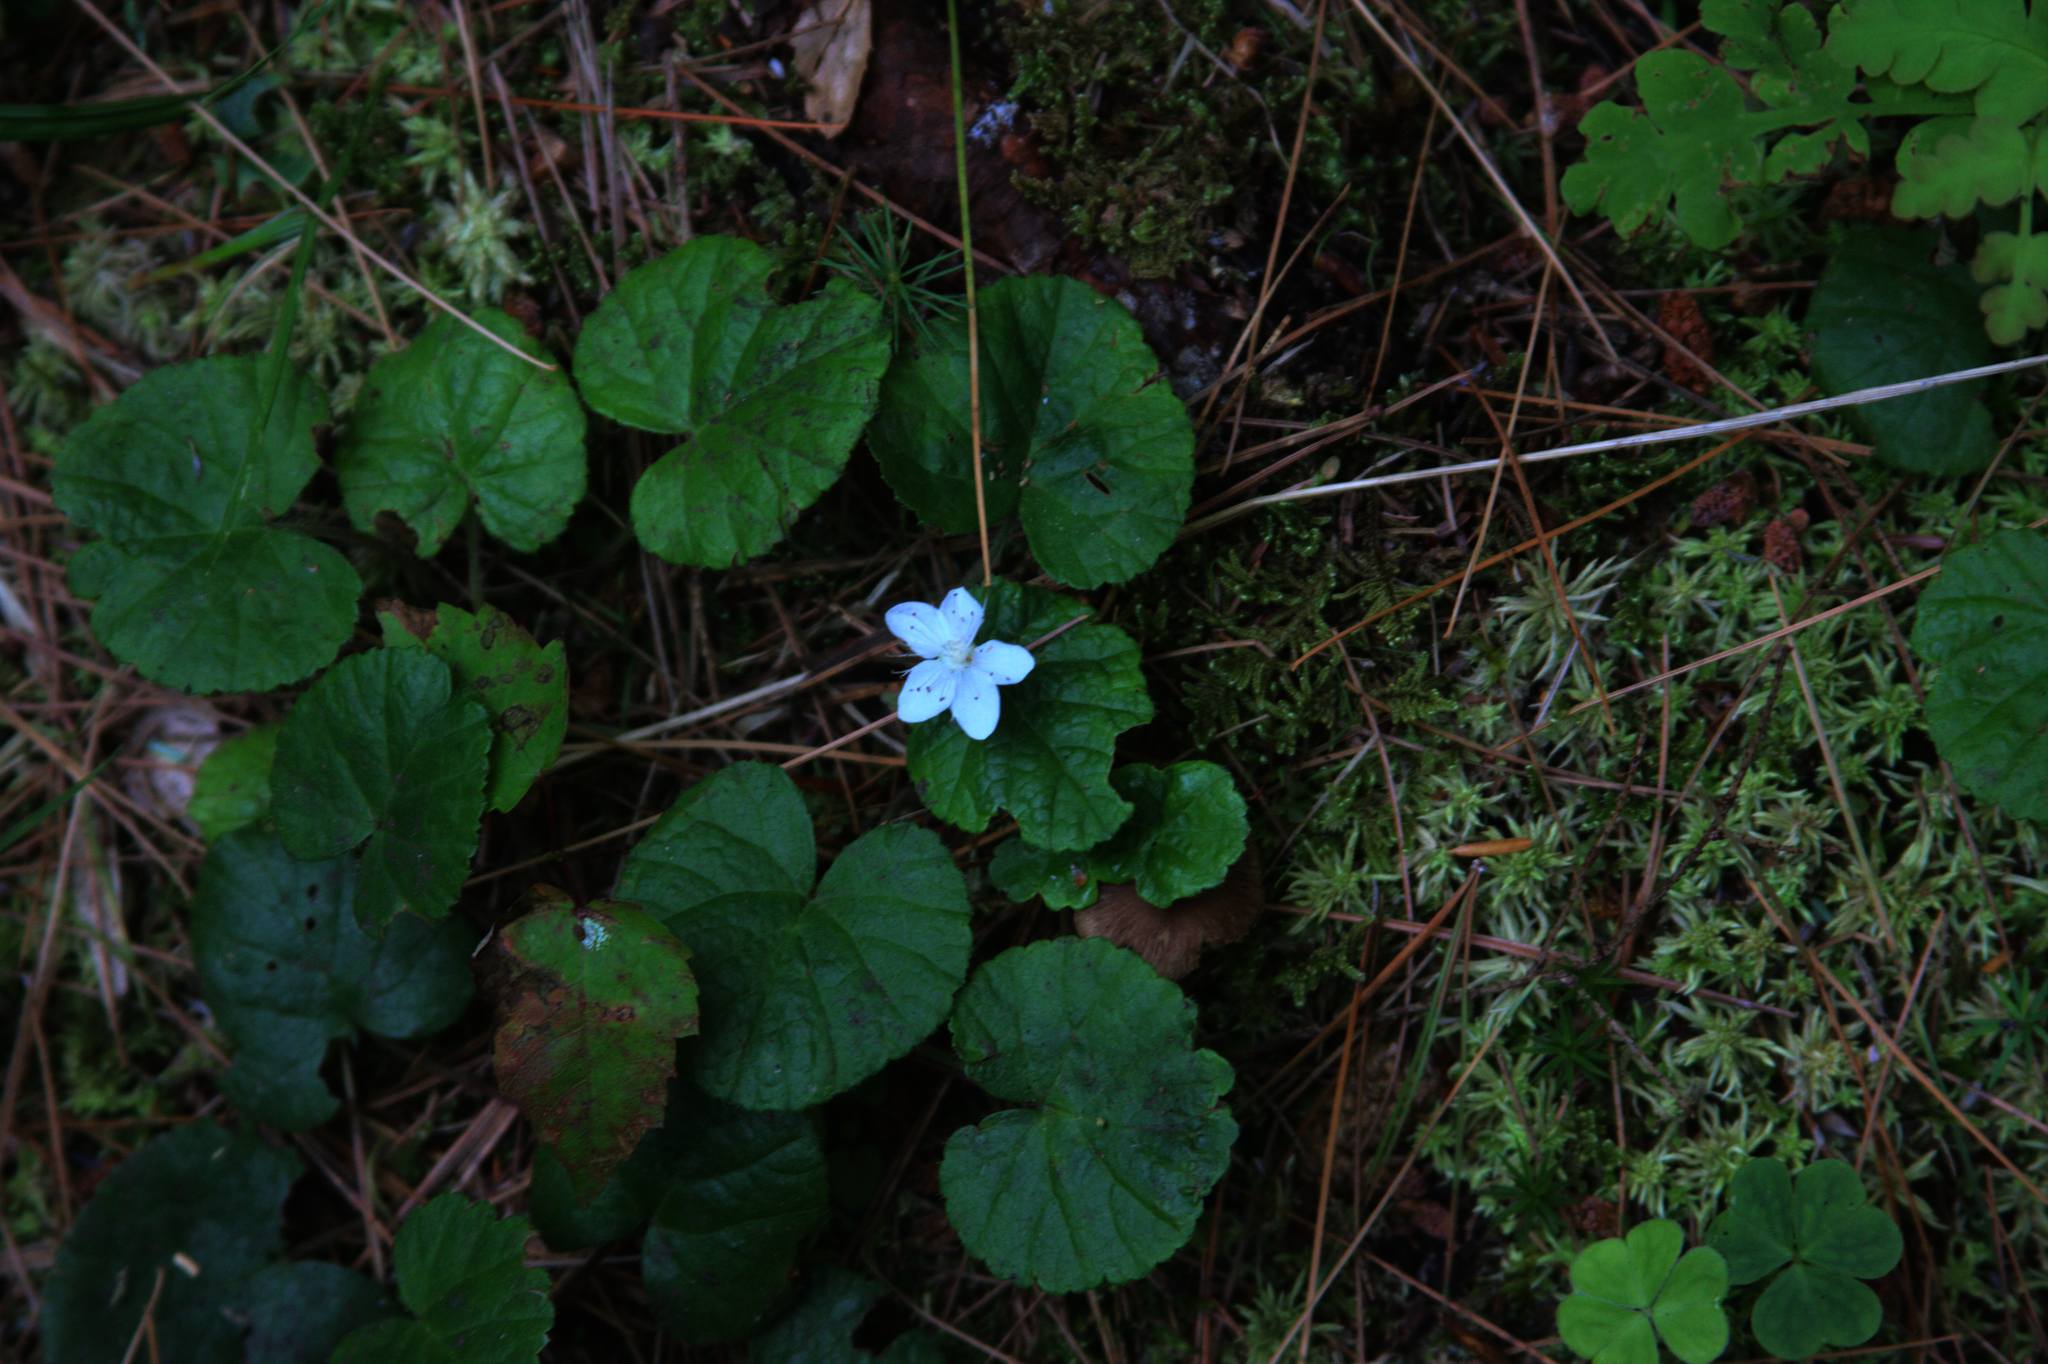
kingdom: Plantae
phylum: Tracheophyta
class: Magnoliopsida
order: Rosales
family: Rosaceae
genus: Dalibarda
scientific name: Dalibarda repens
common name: Dewdrop
